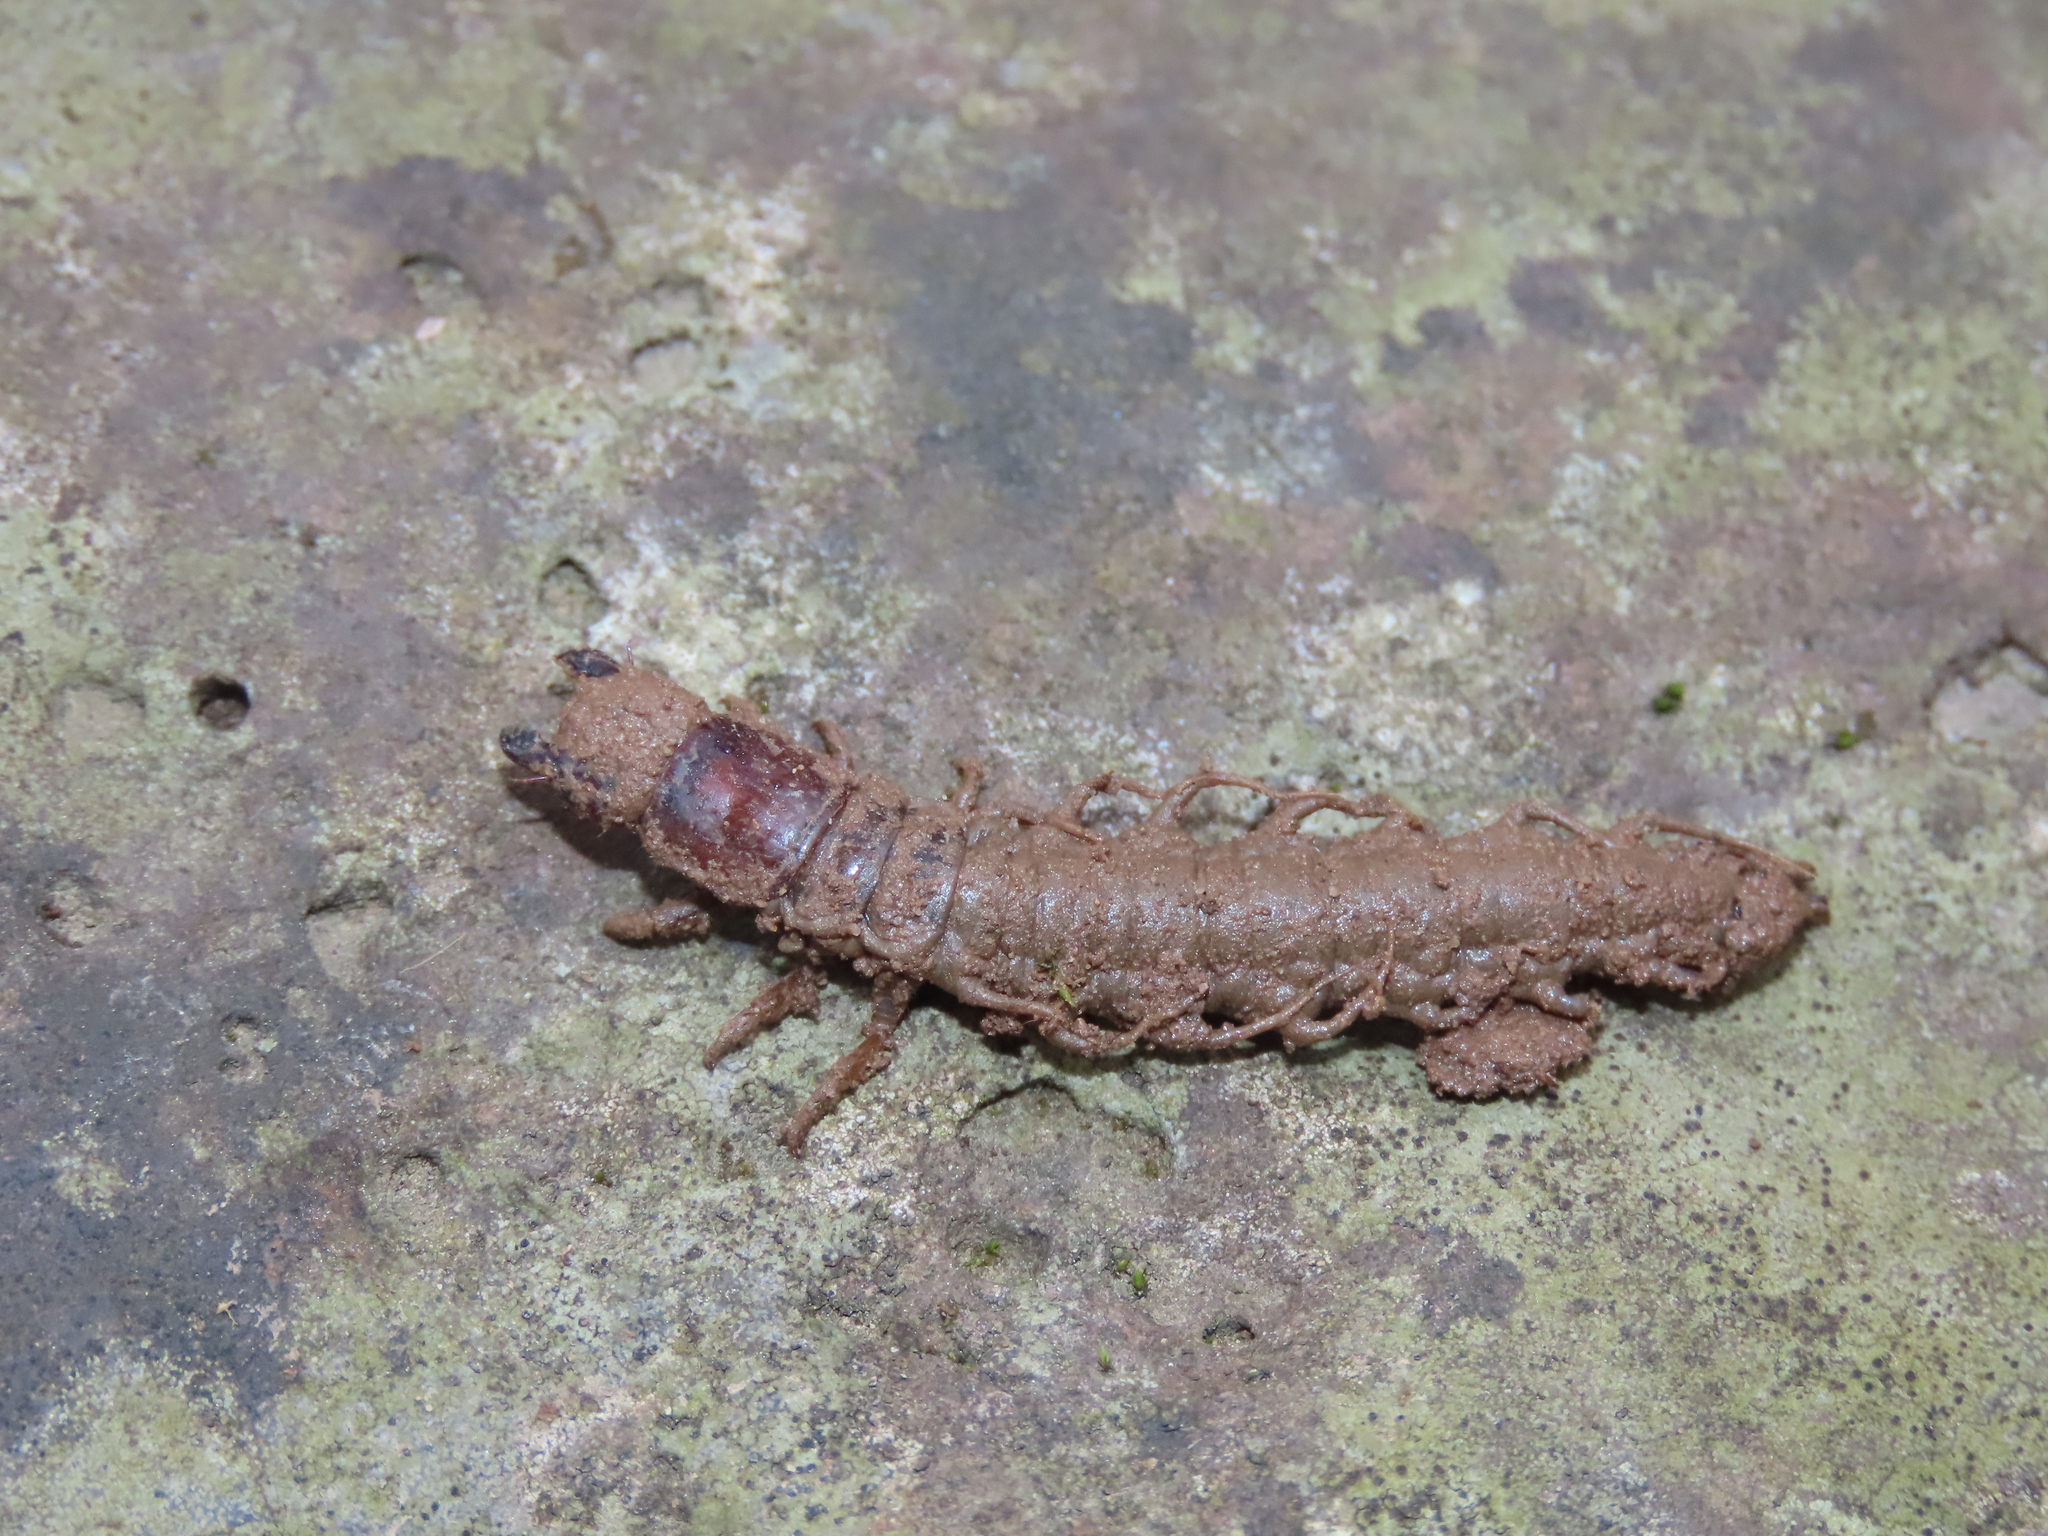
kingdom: Animalia
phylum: Arthropoda
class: Insecta
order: Megaloptera
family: Corydalidae
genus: Nigronia
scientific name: Nigronia serricornis
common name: Serrate dark fishfly
